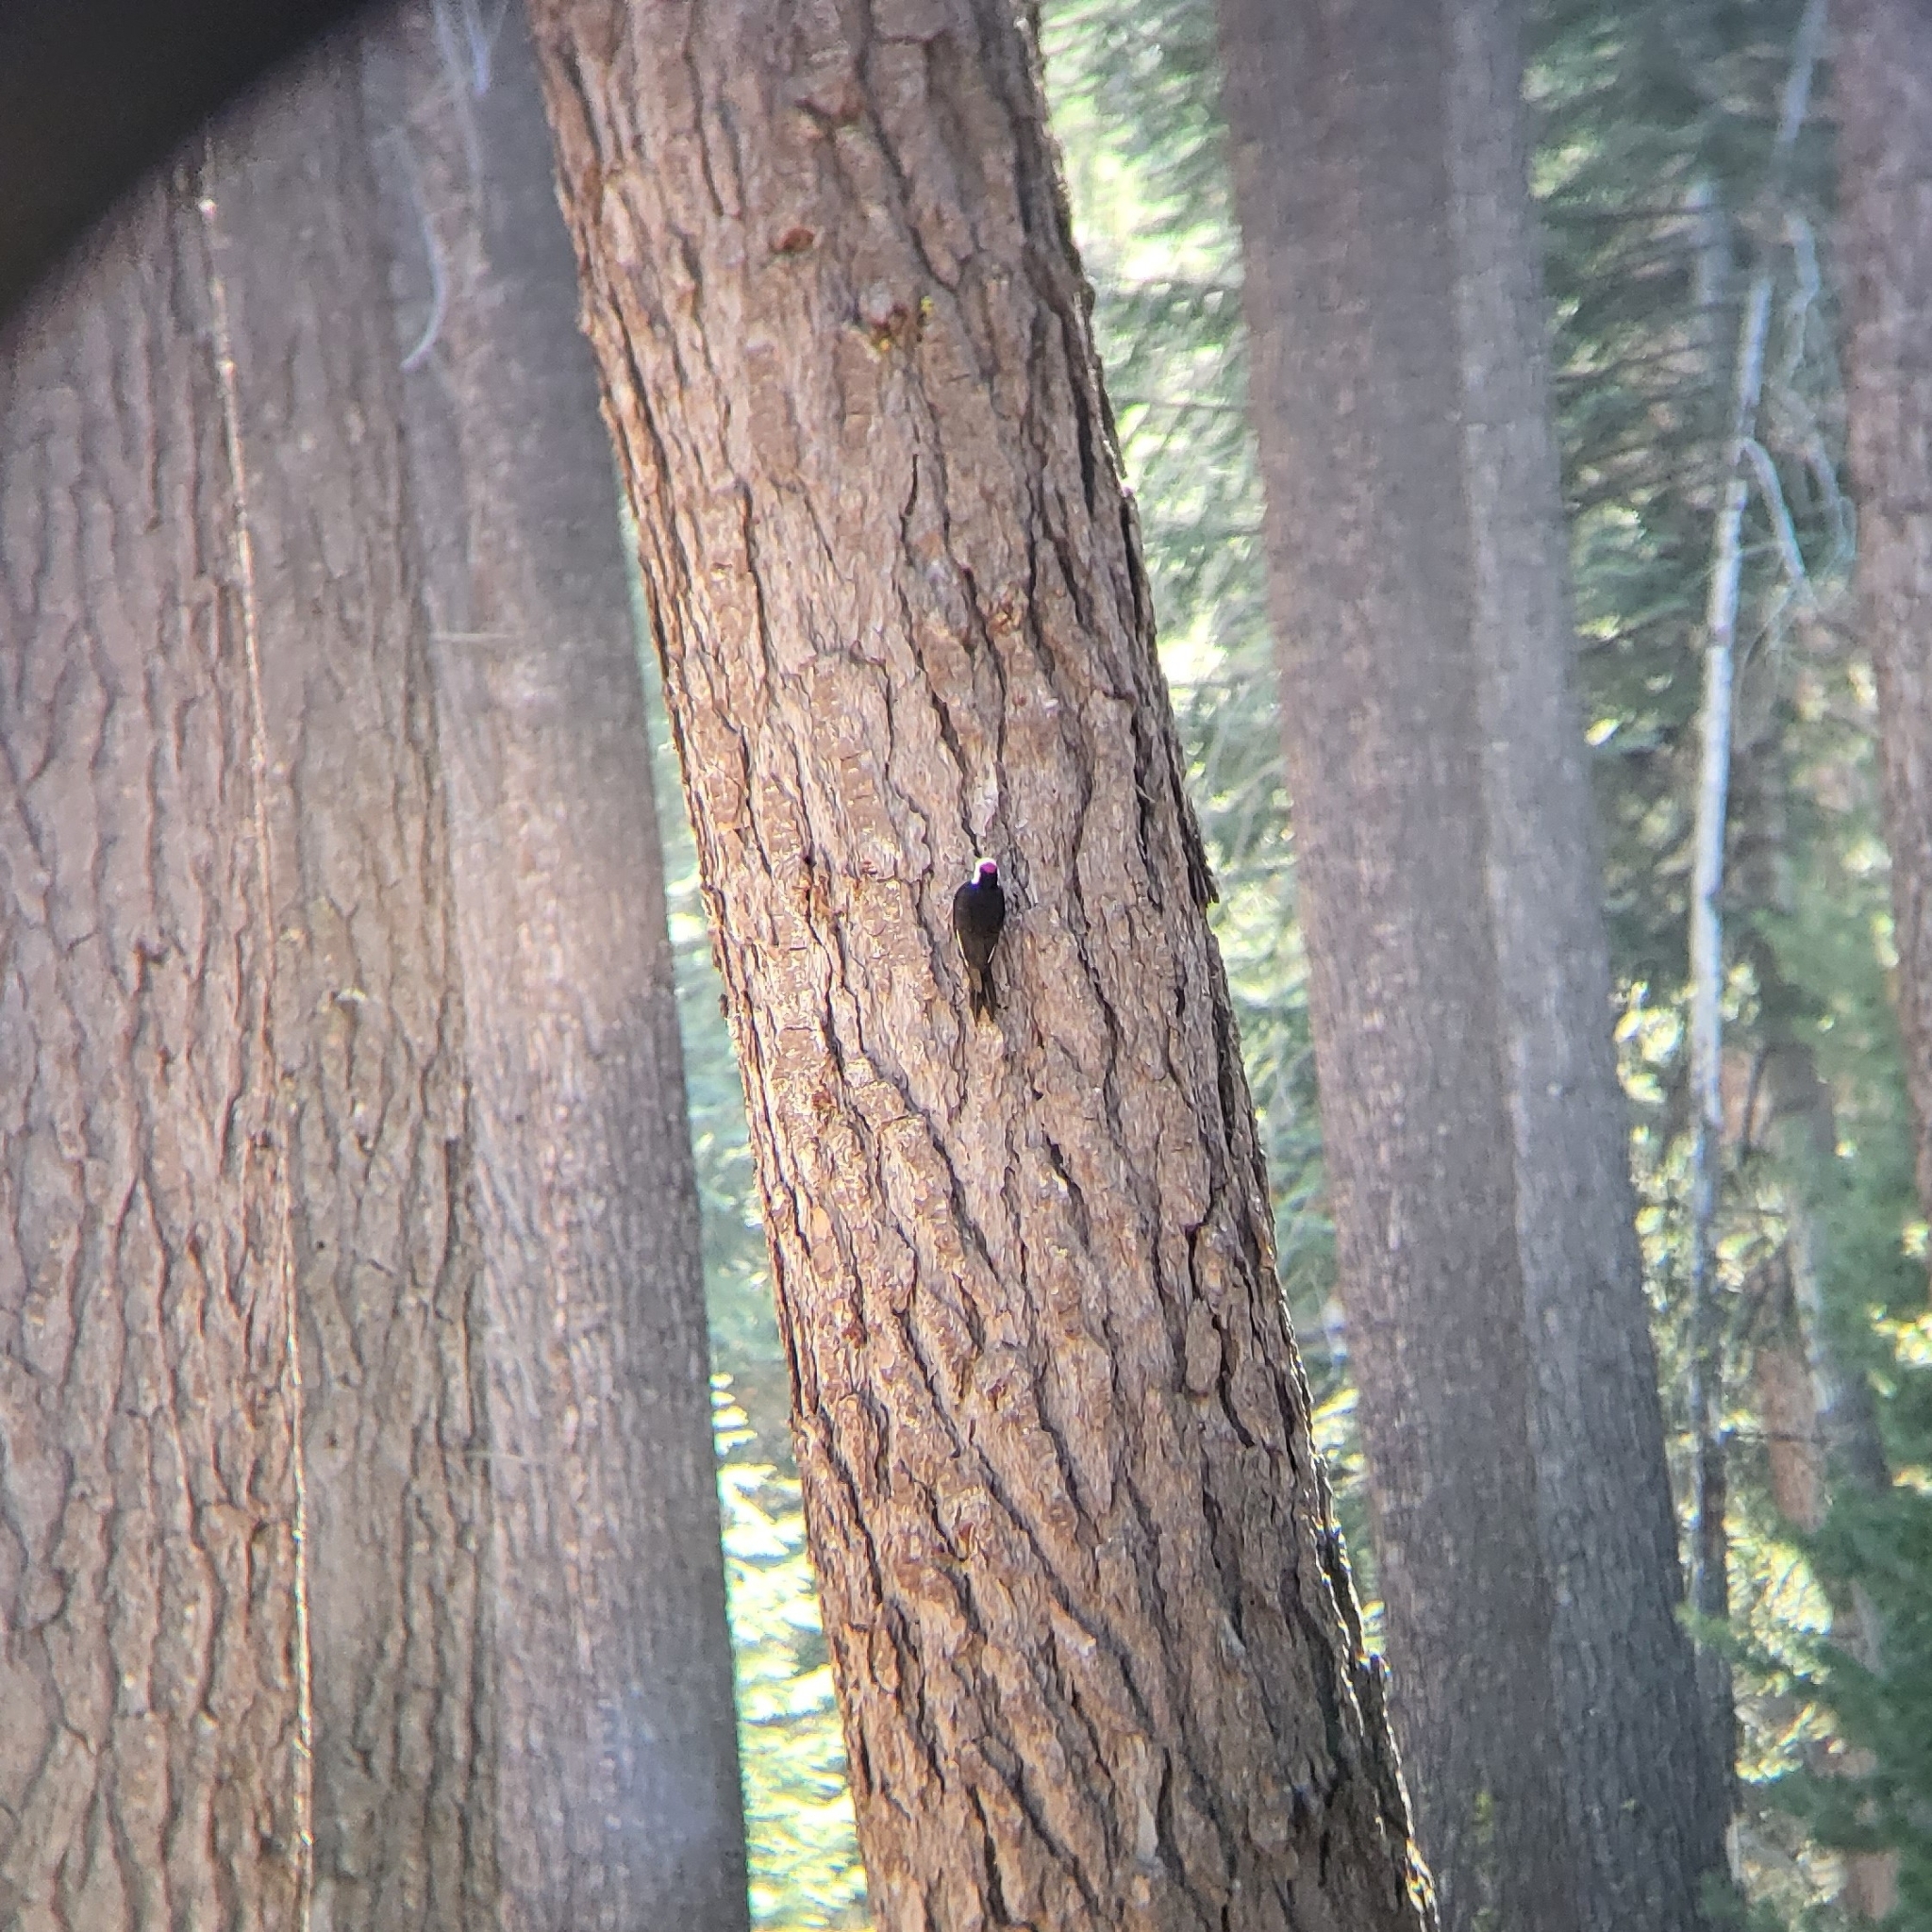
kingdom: Animalia
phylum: Chordata
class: Aves
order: Piciformes
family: Picidae
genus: Leuconotopicus
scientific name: Leuconotopicus albolarvatus
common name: White-headed woodpecker
